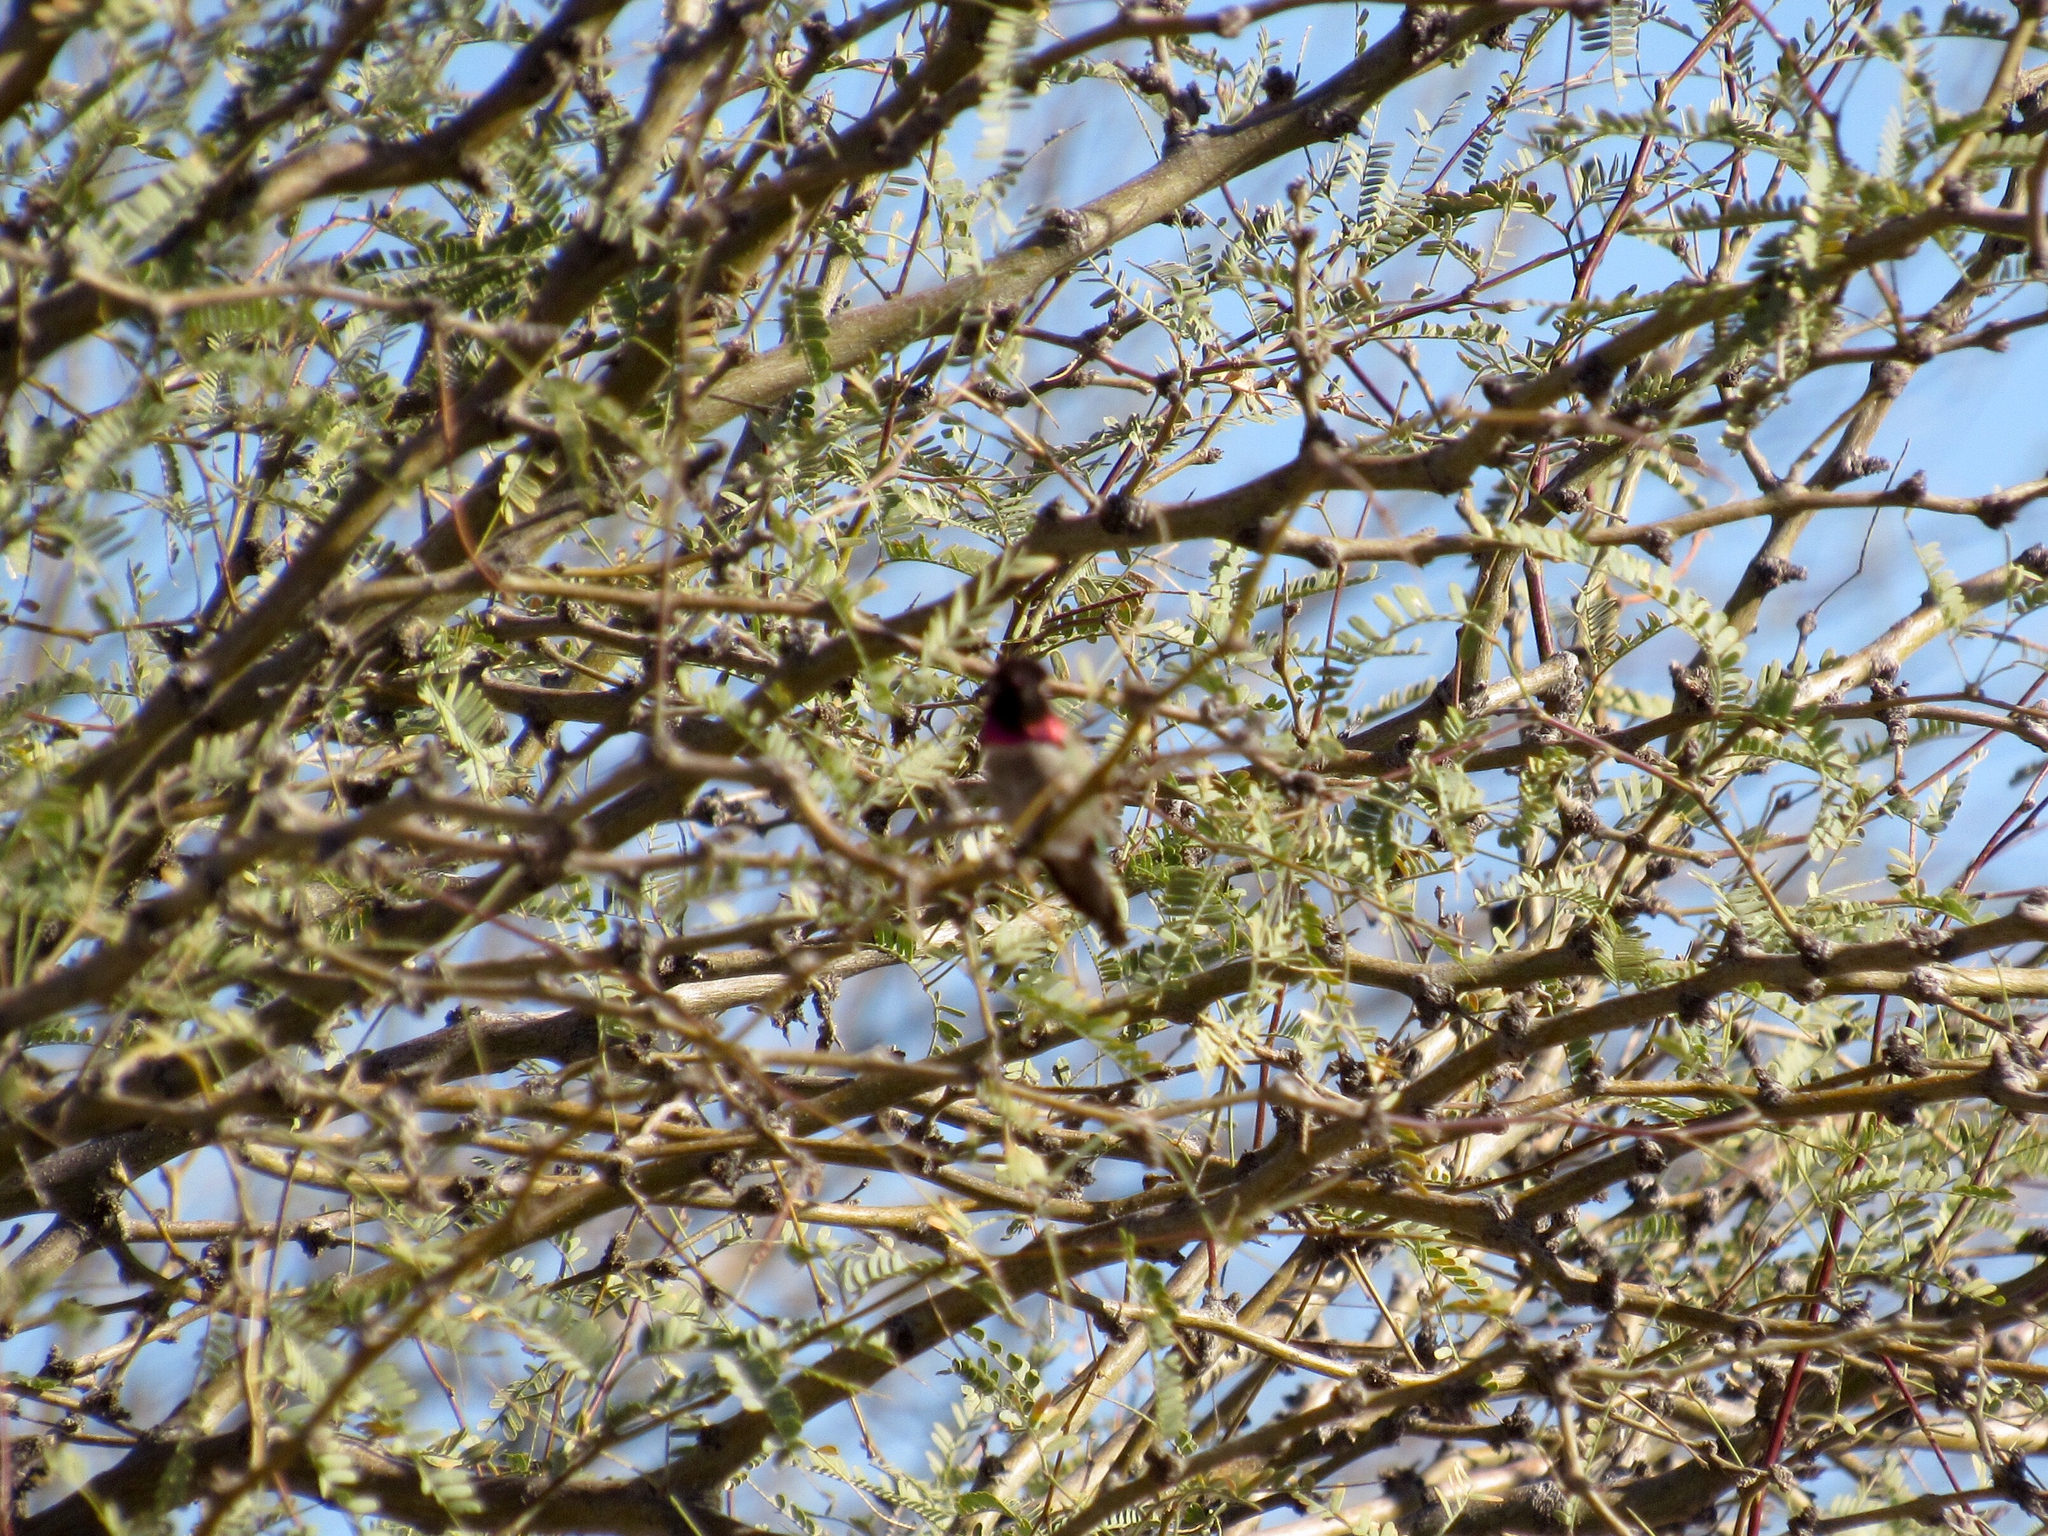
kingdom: Animalia
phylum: Chordata
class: Aves
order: Apodiformes
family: Trochilidae
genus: Calypte
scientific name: Calypte anna
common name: Anna's hummingbird
